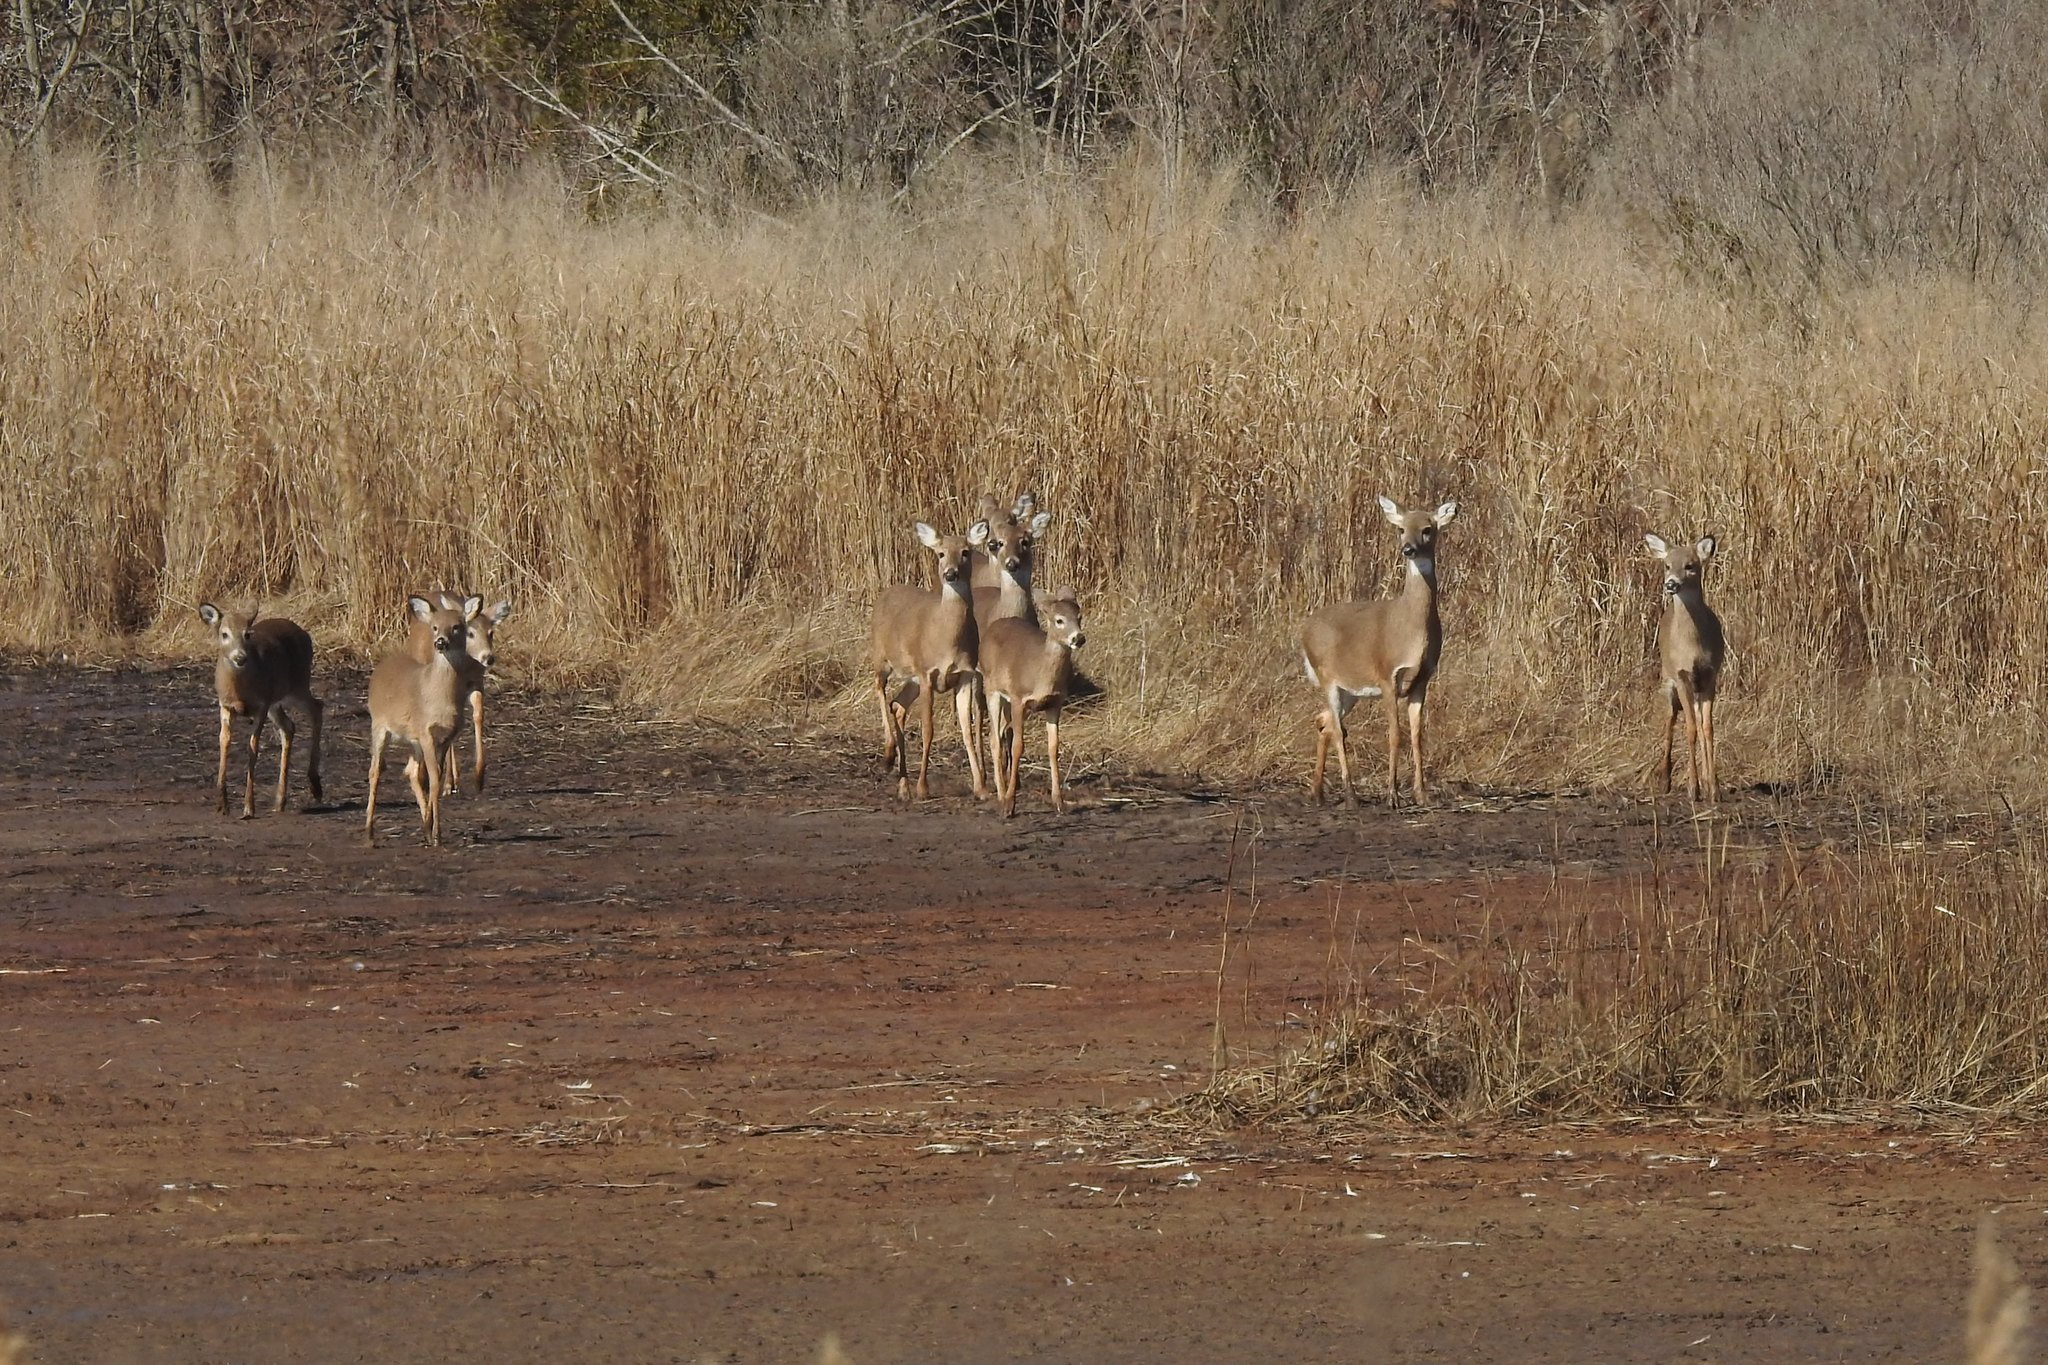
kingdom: Animalia
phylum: Chordata
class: Mammalia
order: Artiodactyla
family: Cervidae
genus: Odocoileus
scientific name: Odocoileus virginianus
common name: White-tailed deer
